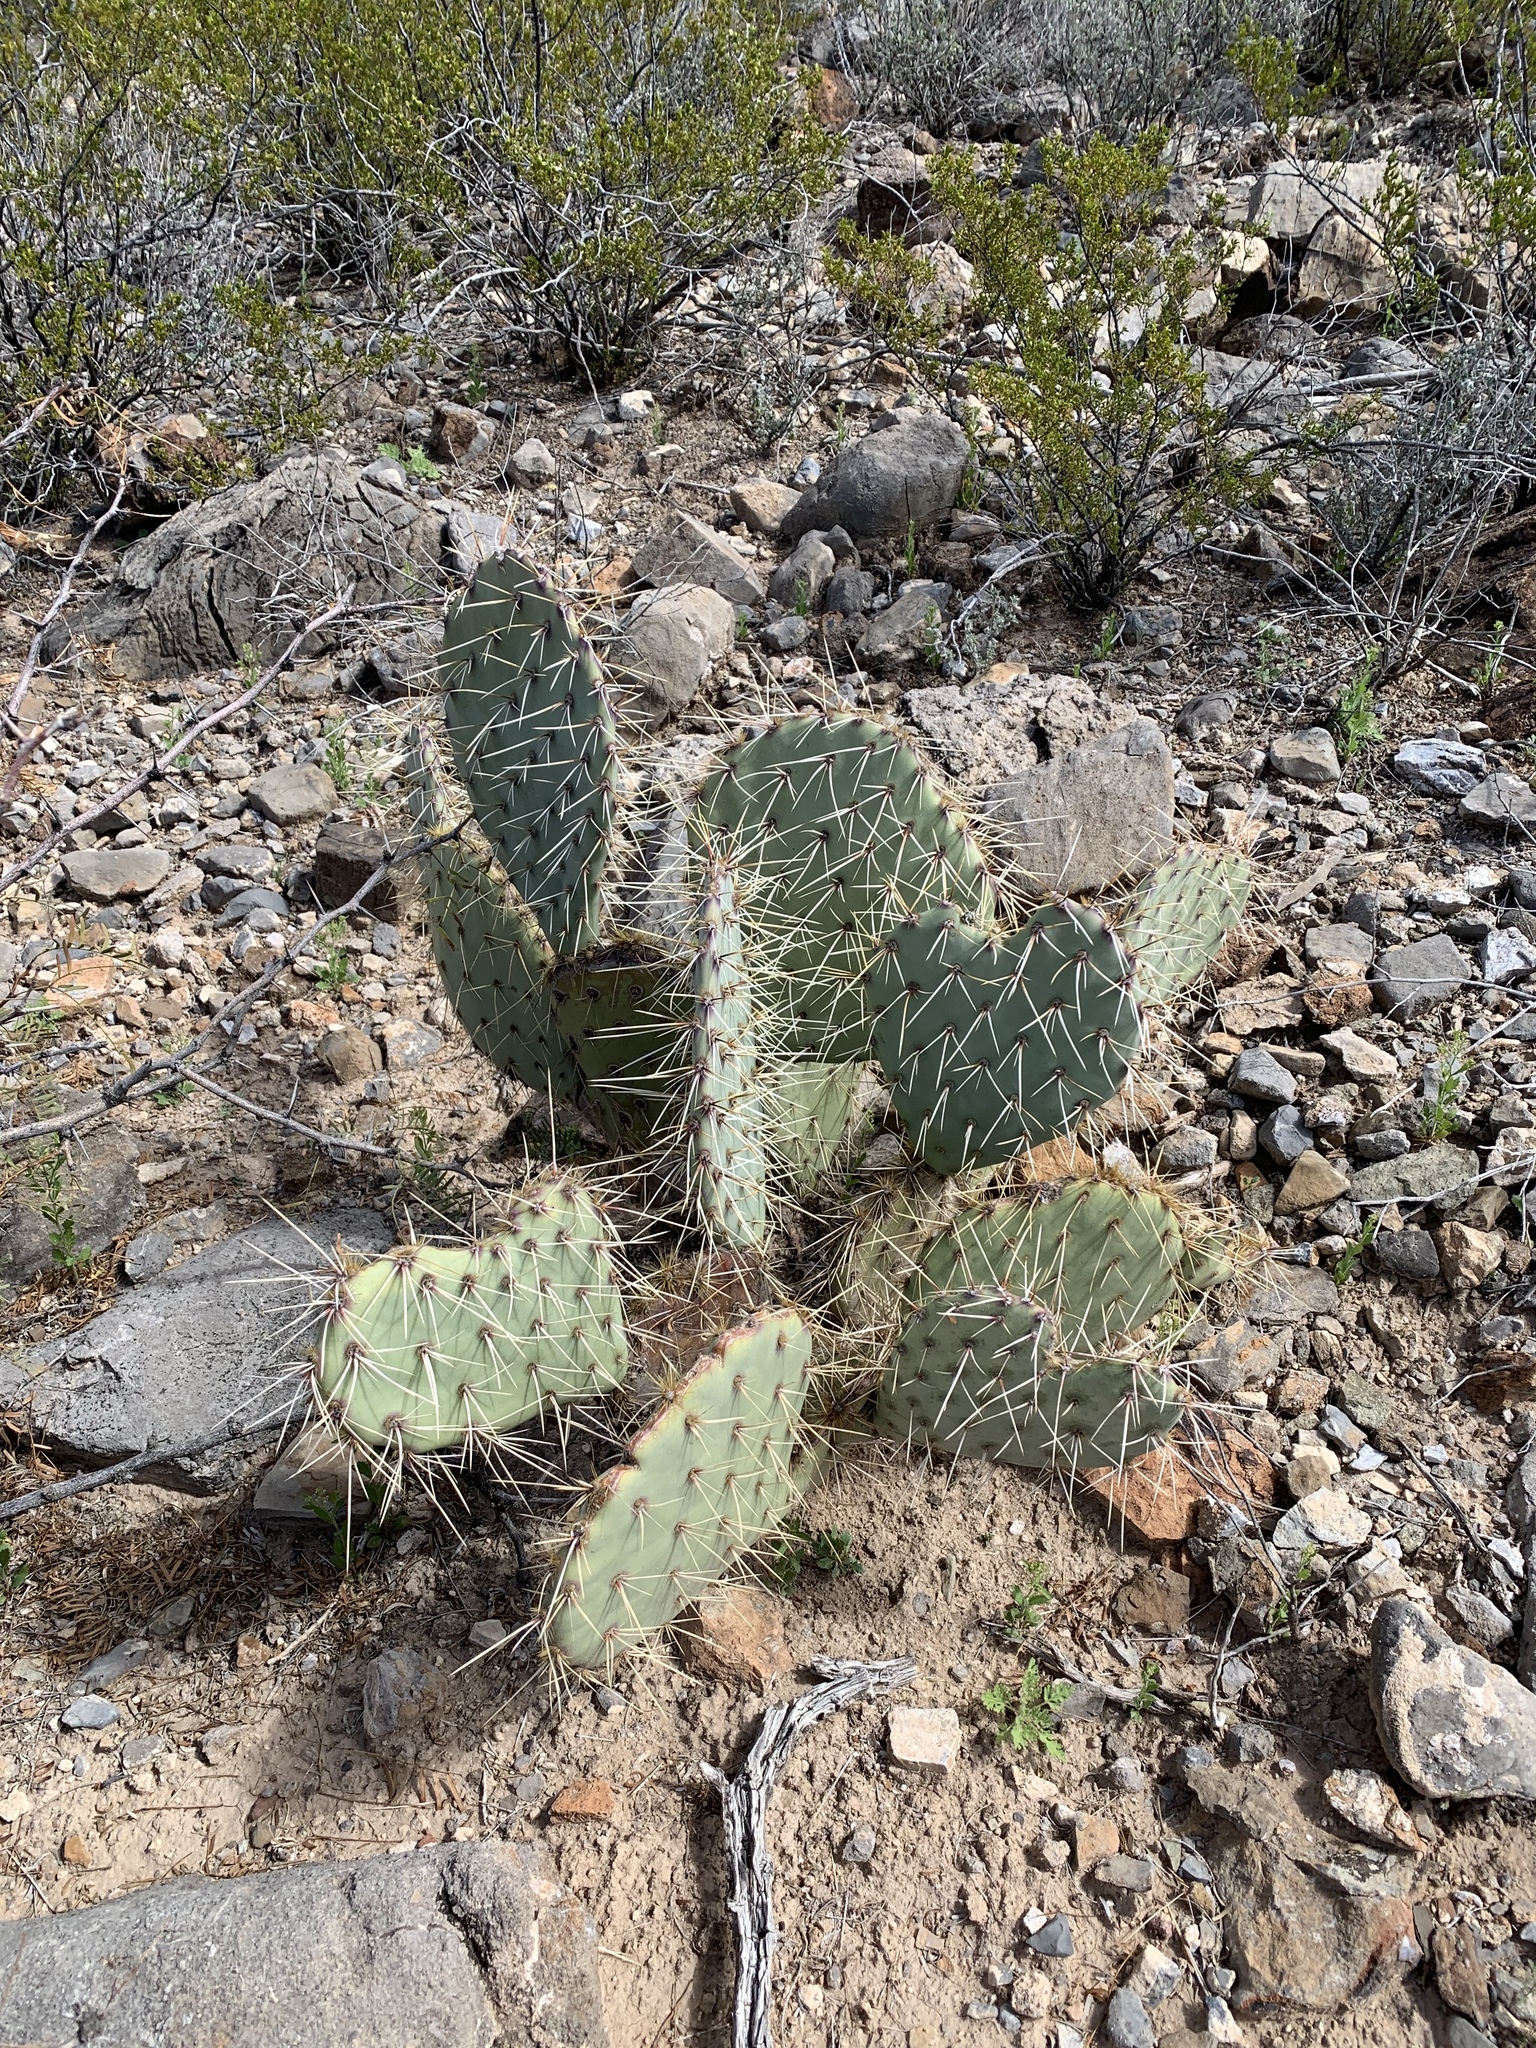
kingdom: Plantae
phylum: Tracheophyta
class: Magnoliopsida
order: Caryophyllales
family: Cactaceae
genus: Opuntia
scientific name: Opuntia phaeacantha
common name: New mexico prickly-pear
